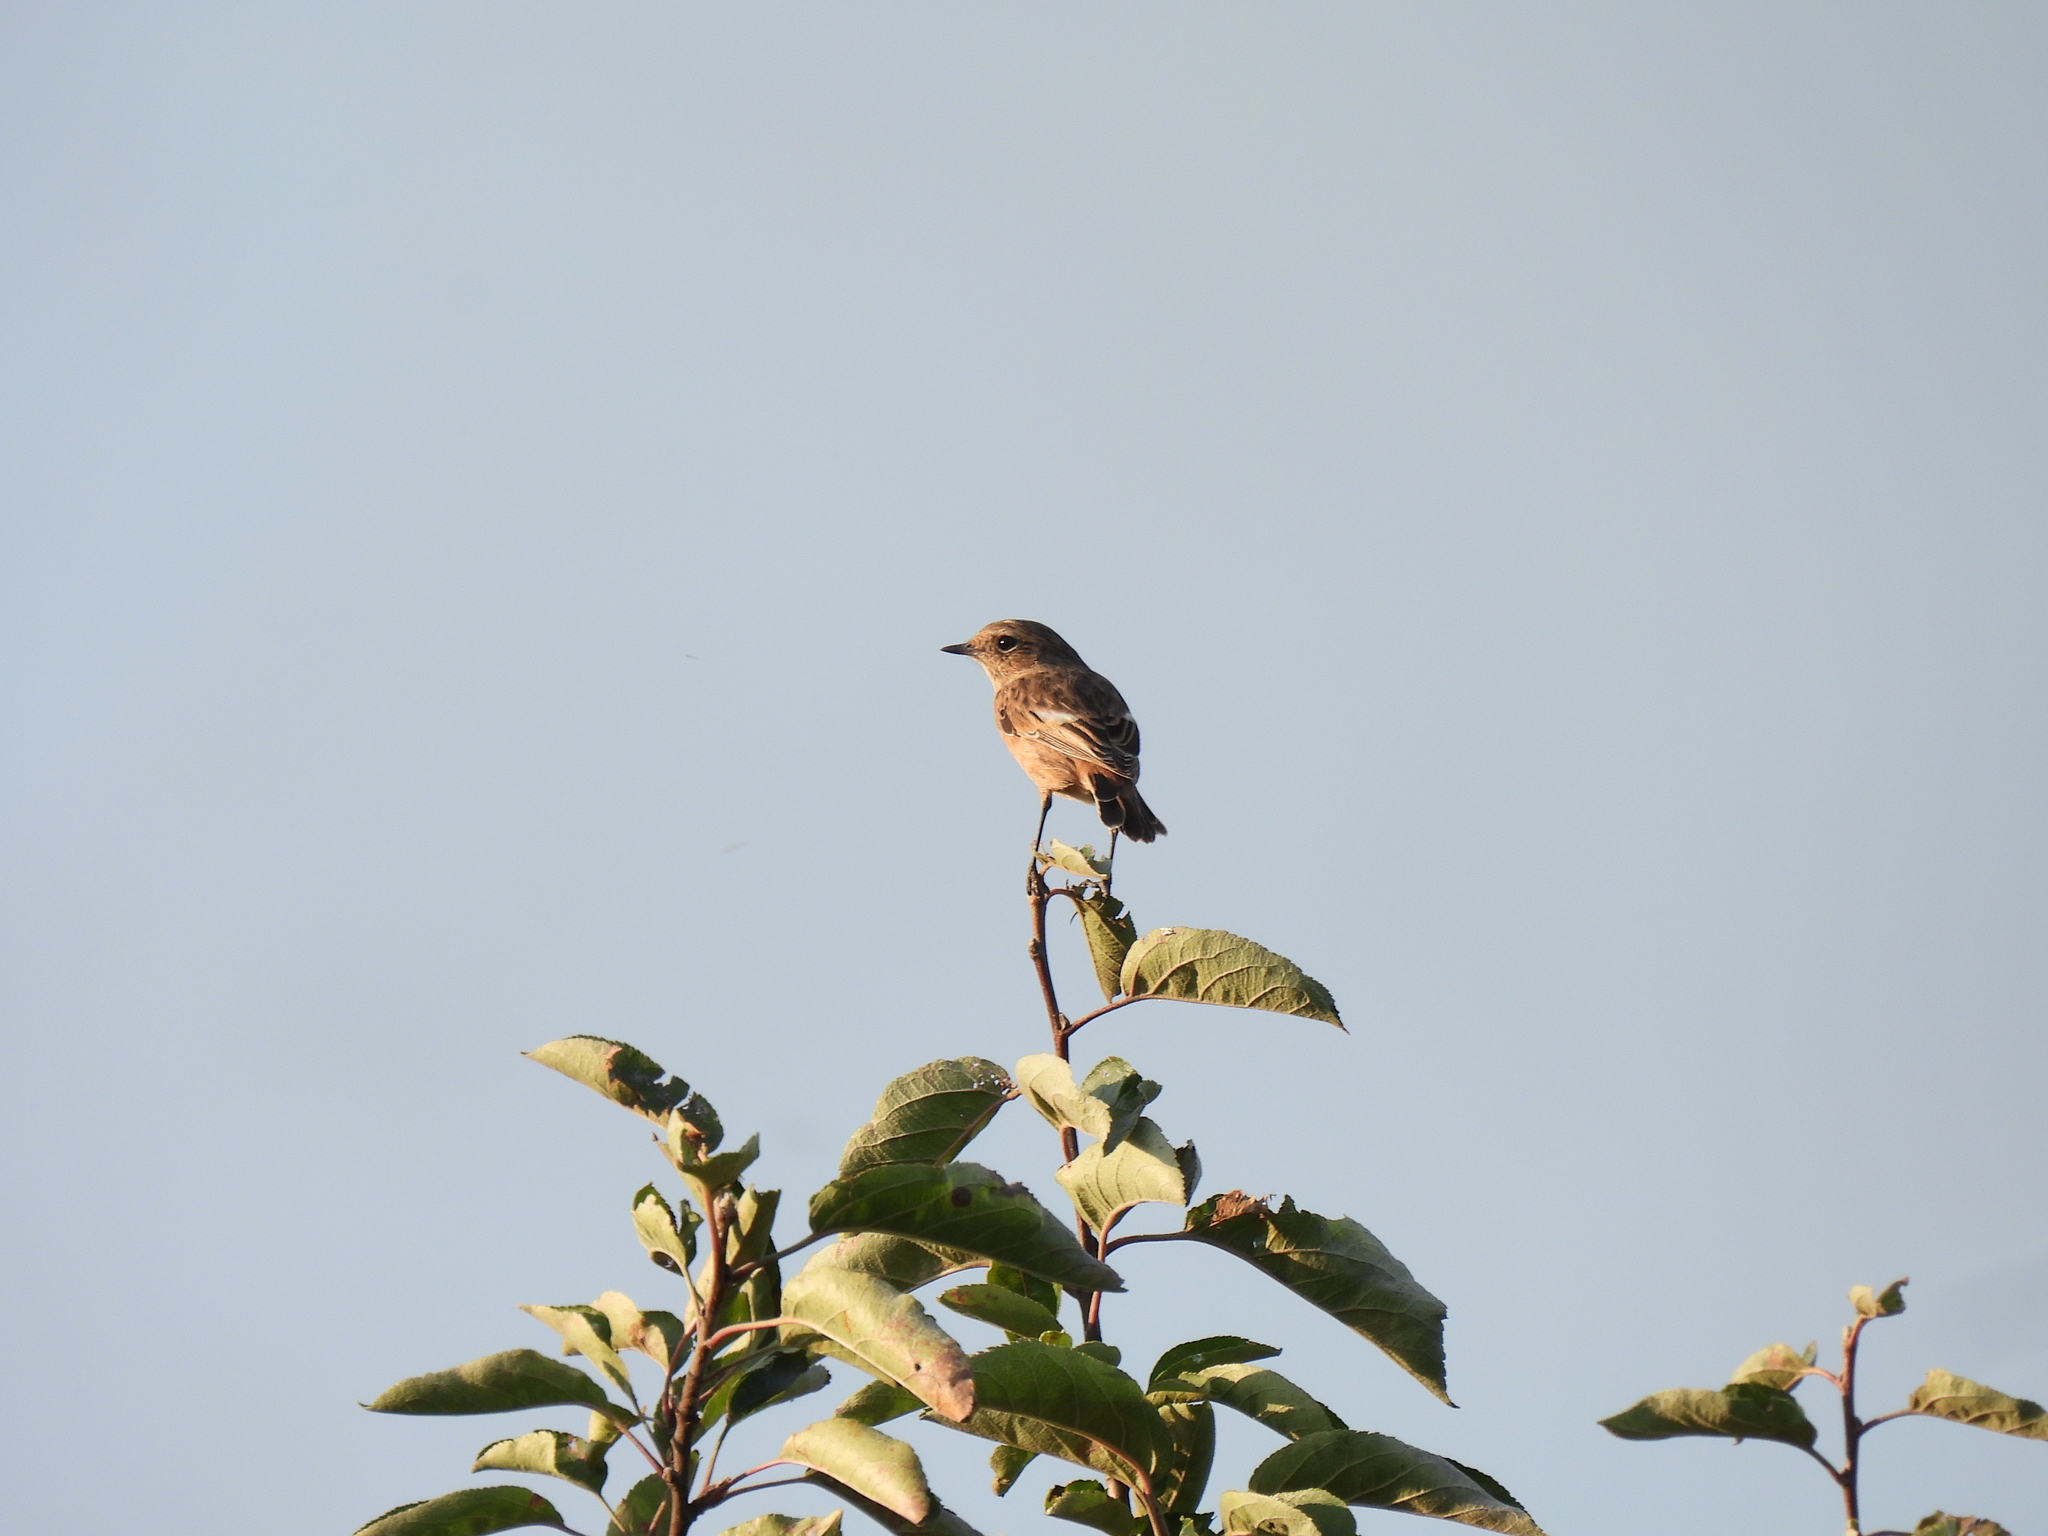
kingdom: Animalia
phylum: Chordata
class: Aves
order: Passeriformes
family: Muscicapidae
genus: Saxicola
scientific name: Saxicola rubicola
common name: European stonechat
